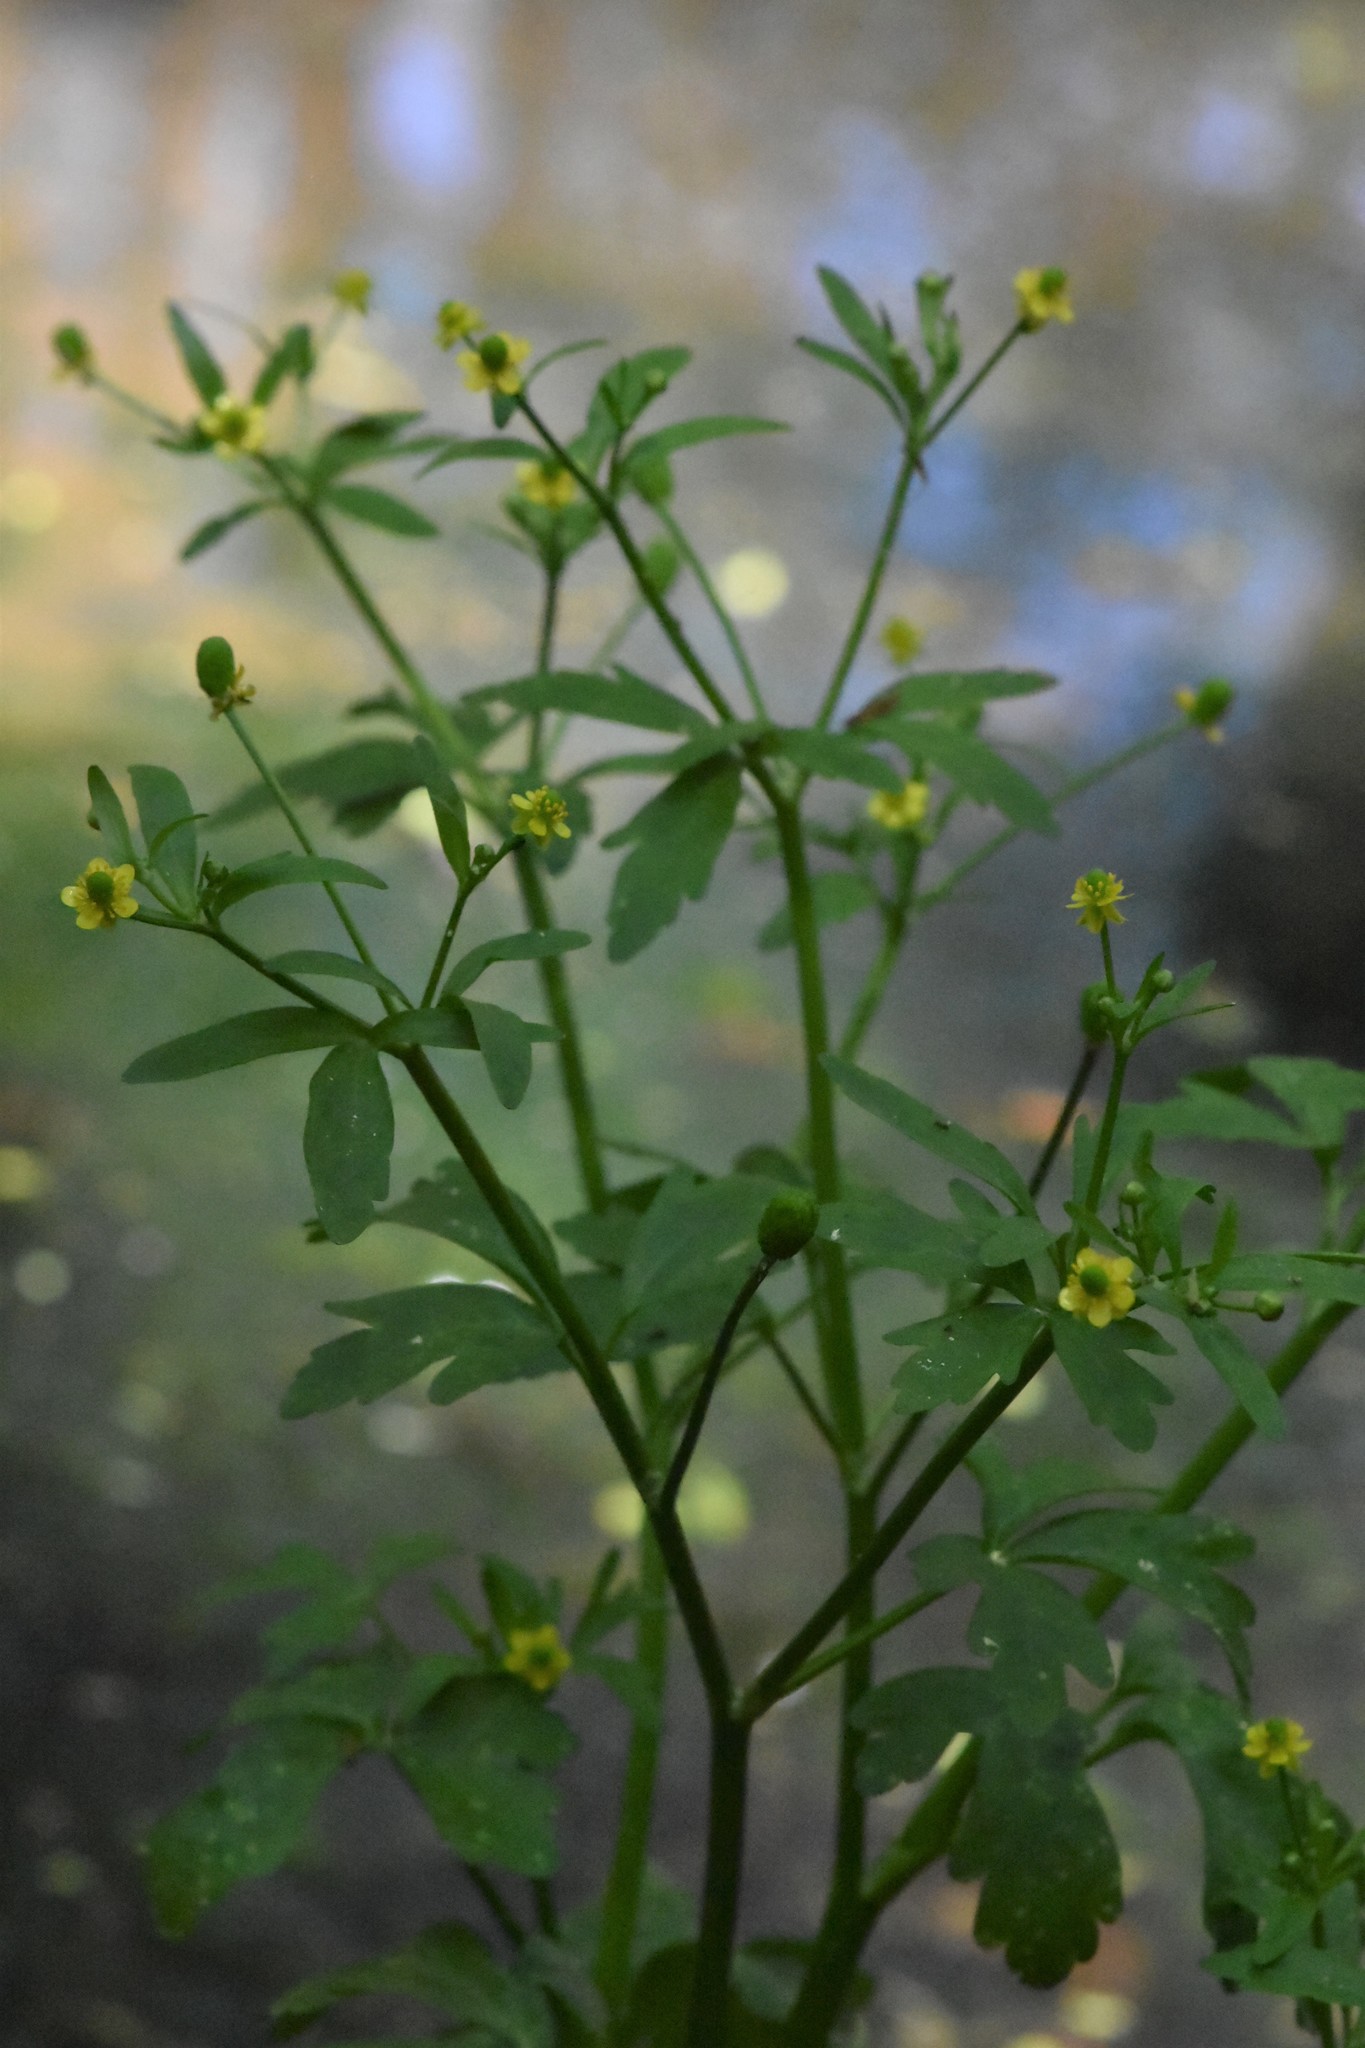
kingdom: Plantae
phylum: Tracheophyta
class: Magnoliopsida
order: Ranunculales
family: Ranunculaceae
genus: Ranunculus
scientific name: Ranunculus sceleratus
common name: Celery-leaved buttercup
